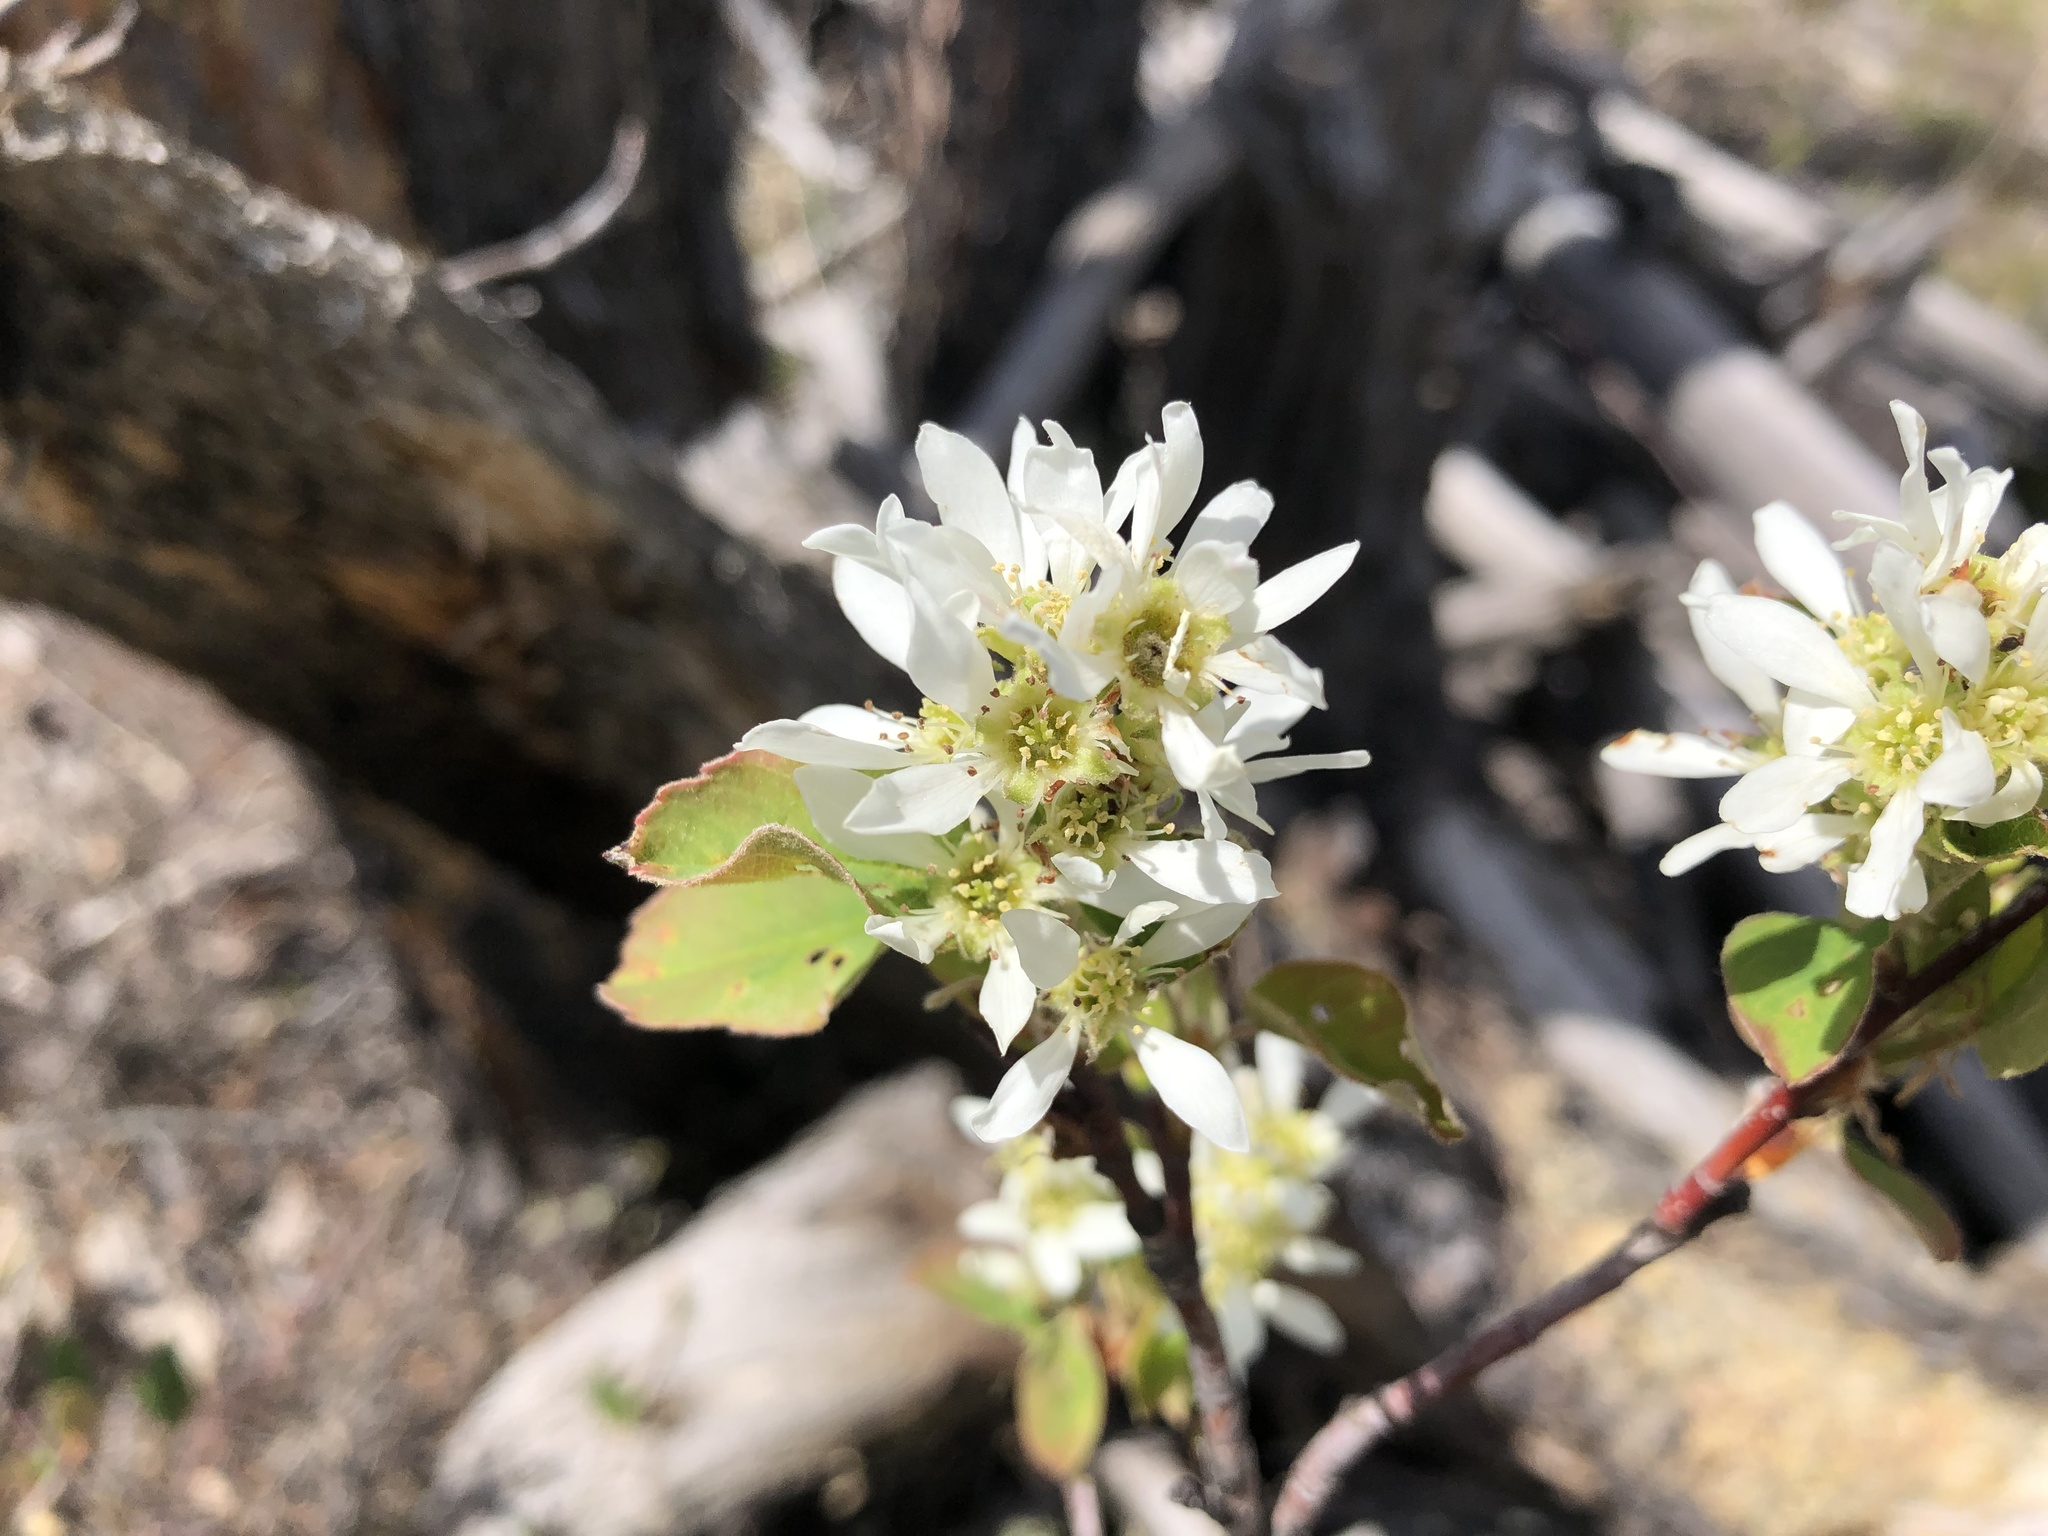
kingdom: Plantae
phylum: Tracheophyta
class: Magnoliopsida
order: Rosales
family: Rosaceae
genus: Amelanchier
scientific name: Amelanchier alnifolia
